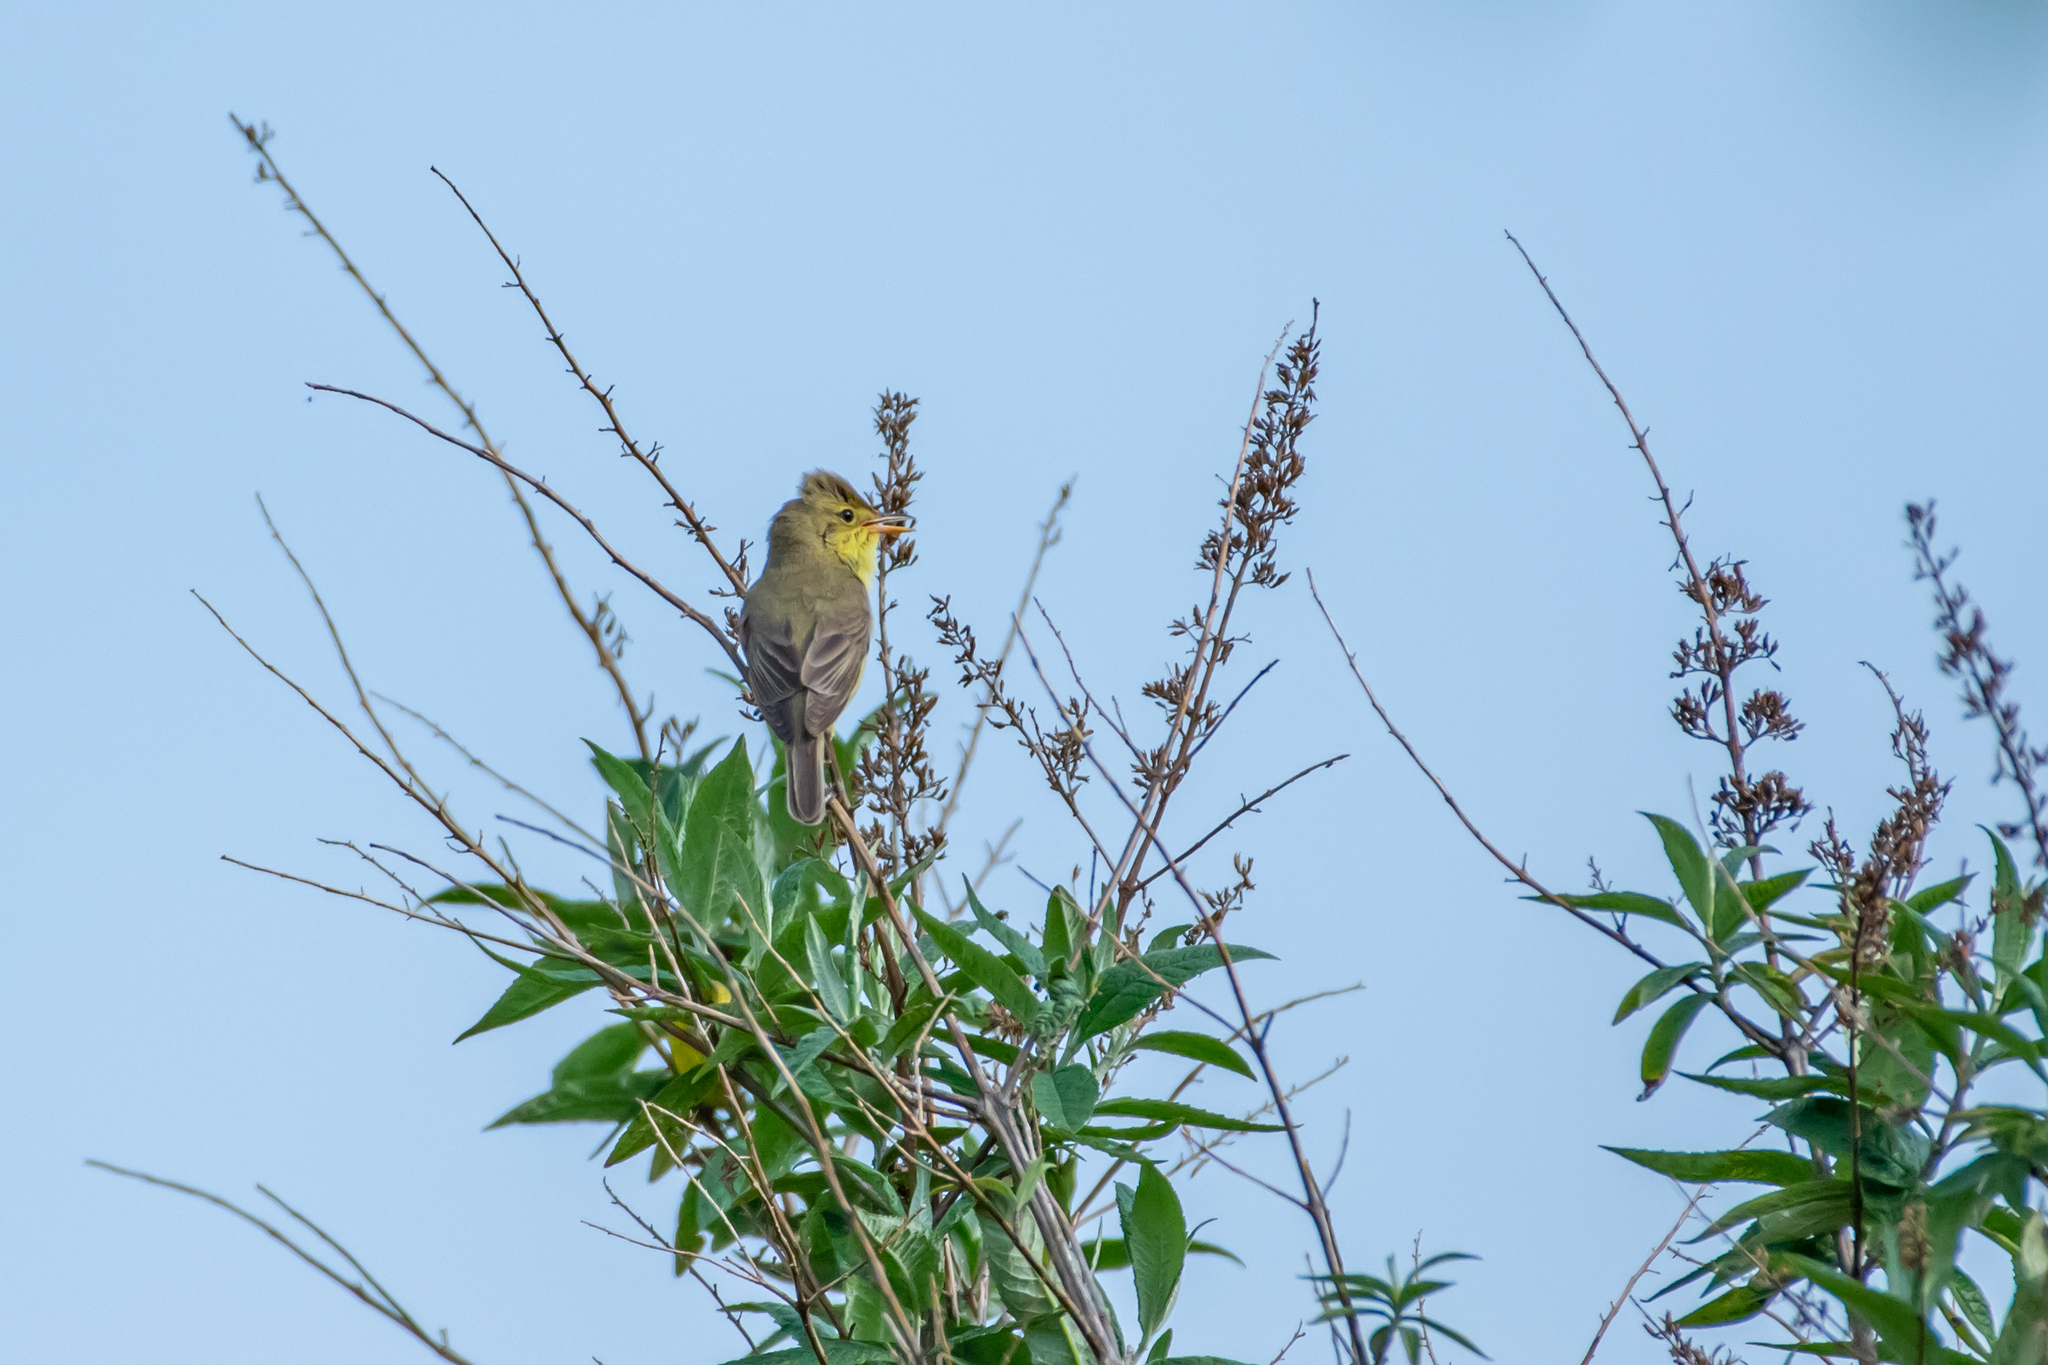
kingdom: Animalia
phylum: Chordata
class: Aves
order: Passeriformes
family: Acrocephalidae
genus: Hippolais
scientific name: Hippolais polyglotta
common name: Melodious warbler
